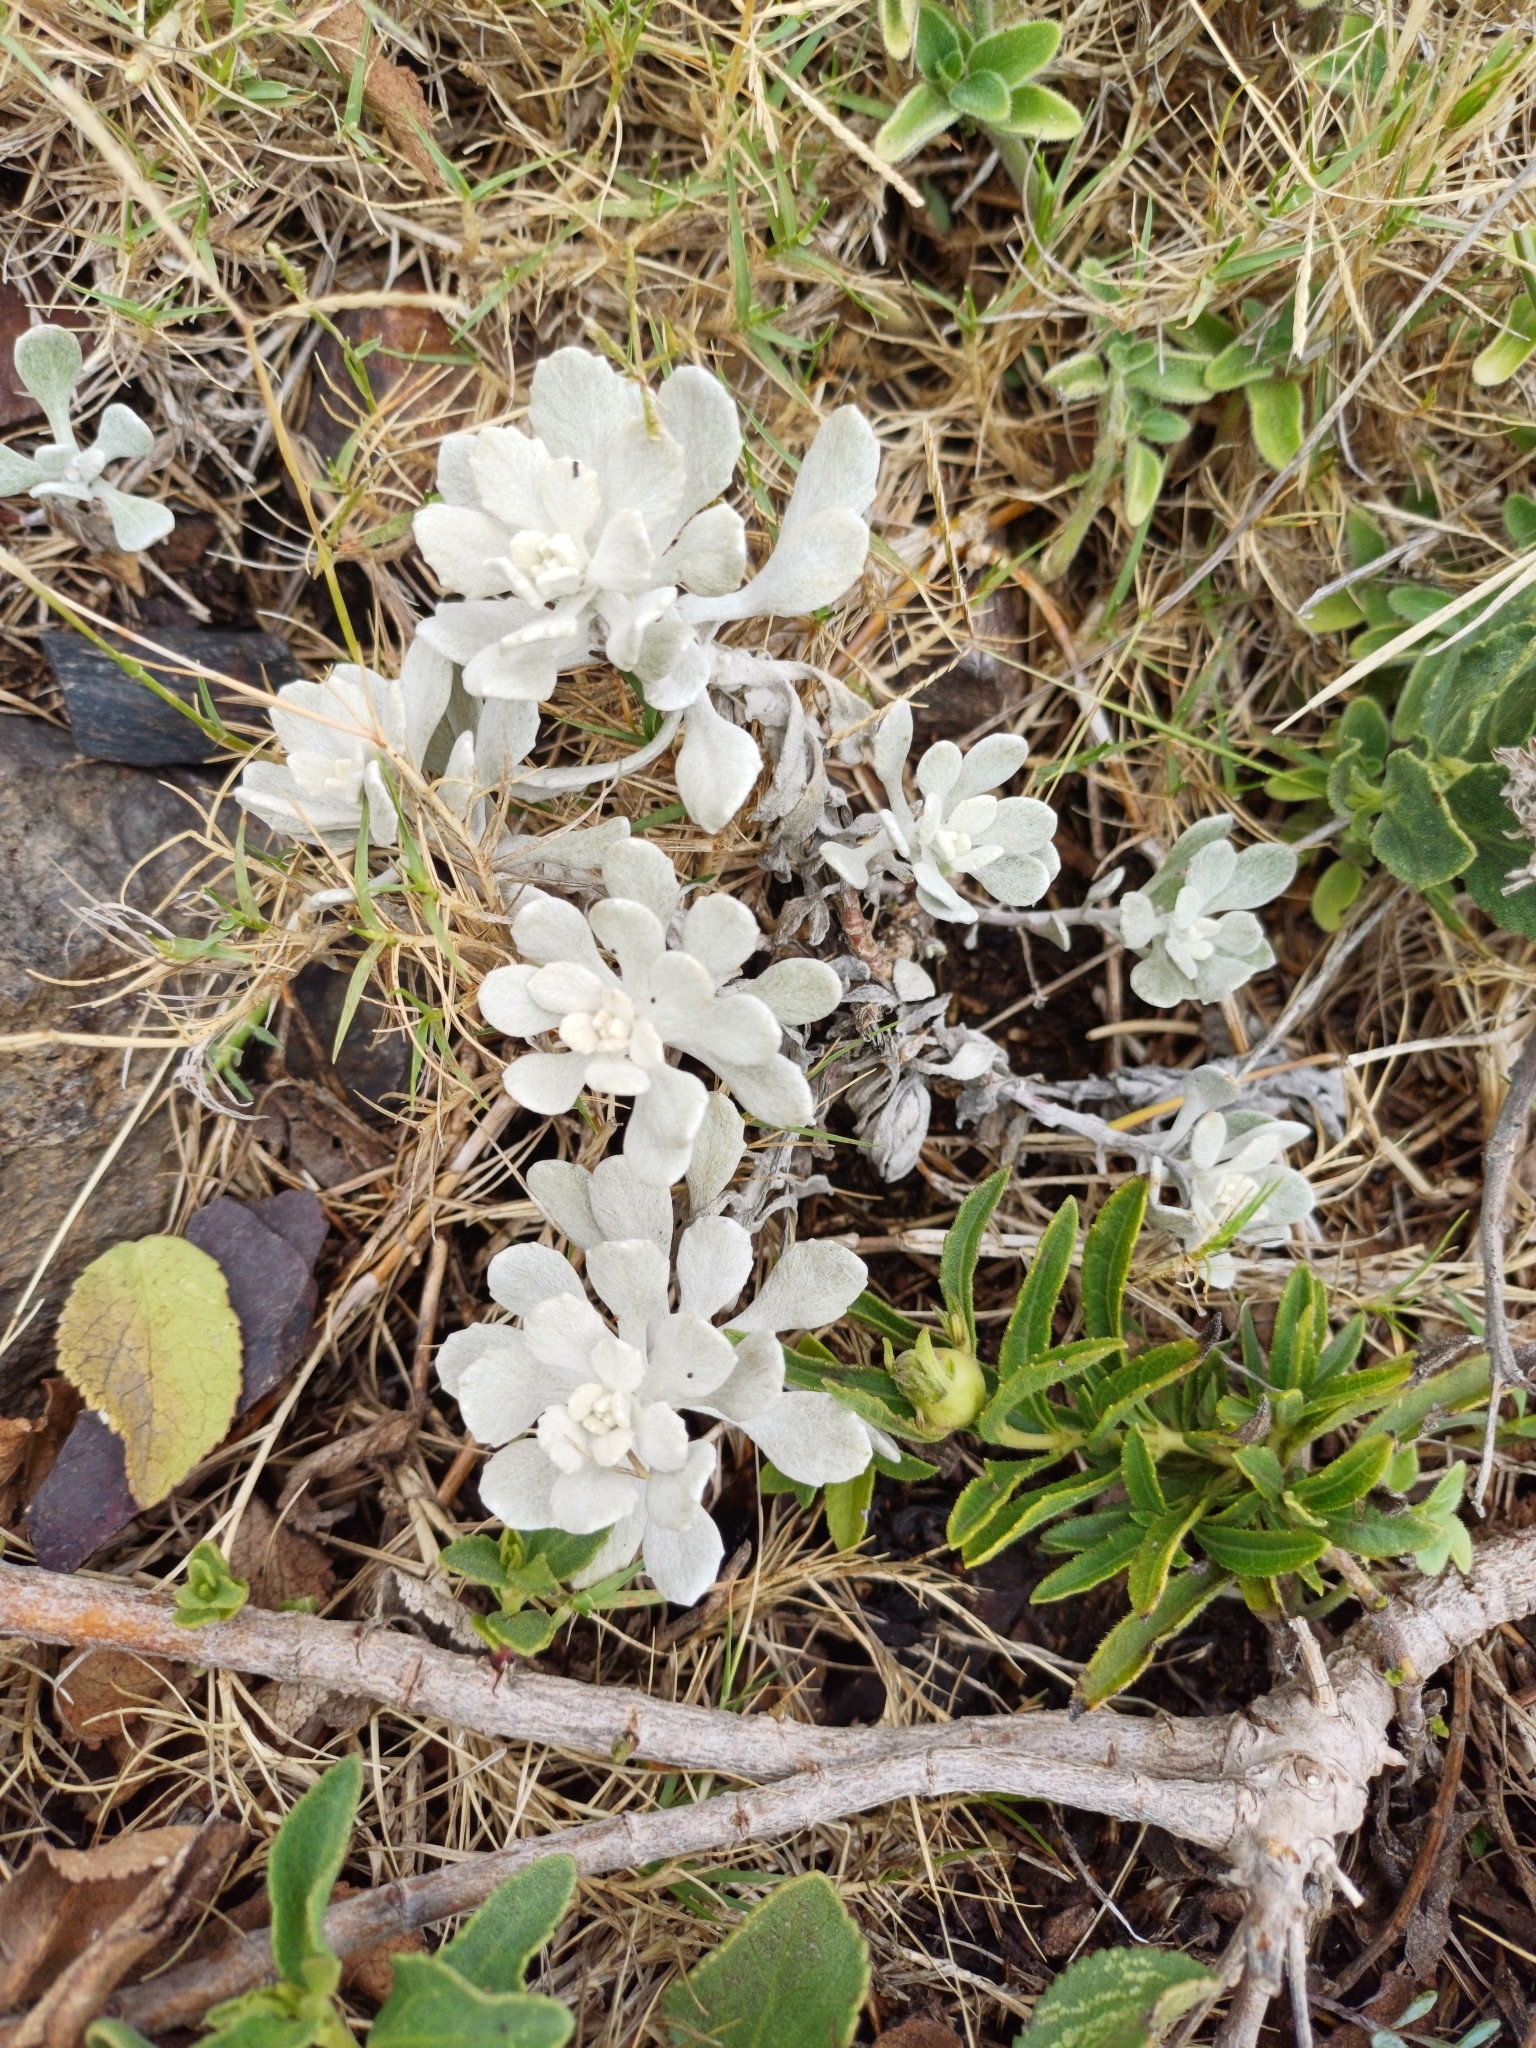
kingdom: Plantae
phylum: Tracheophyta
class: Magnoliopsida
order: Asterales
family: Asteraceae
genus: Senecio
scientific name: Senecio ostenii
